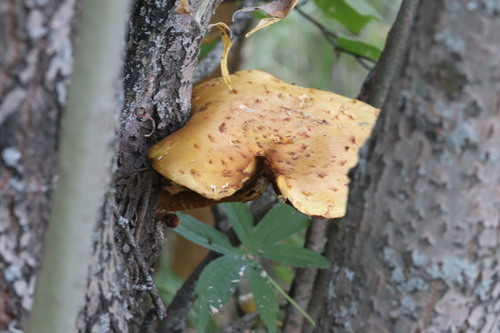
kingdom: Fungi
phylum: Basidiomycota
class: Agaricomycetes
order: Agaricales
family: Strophariaceae
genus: Pholiota
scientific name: Pholiota
